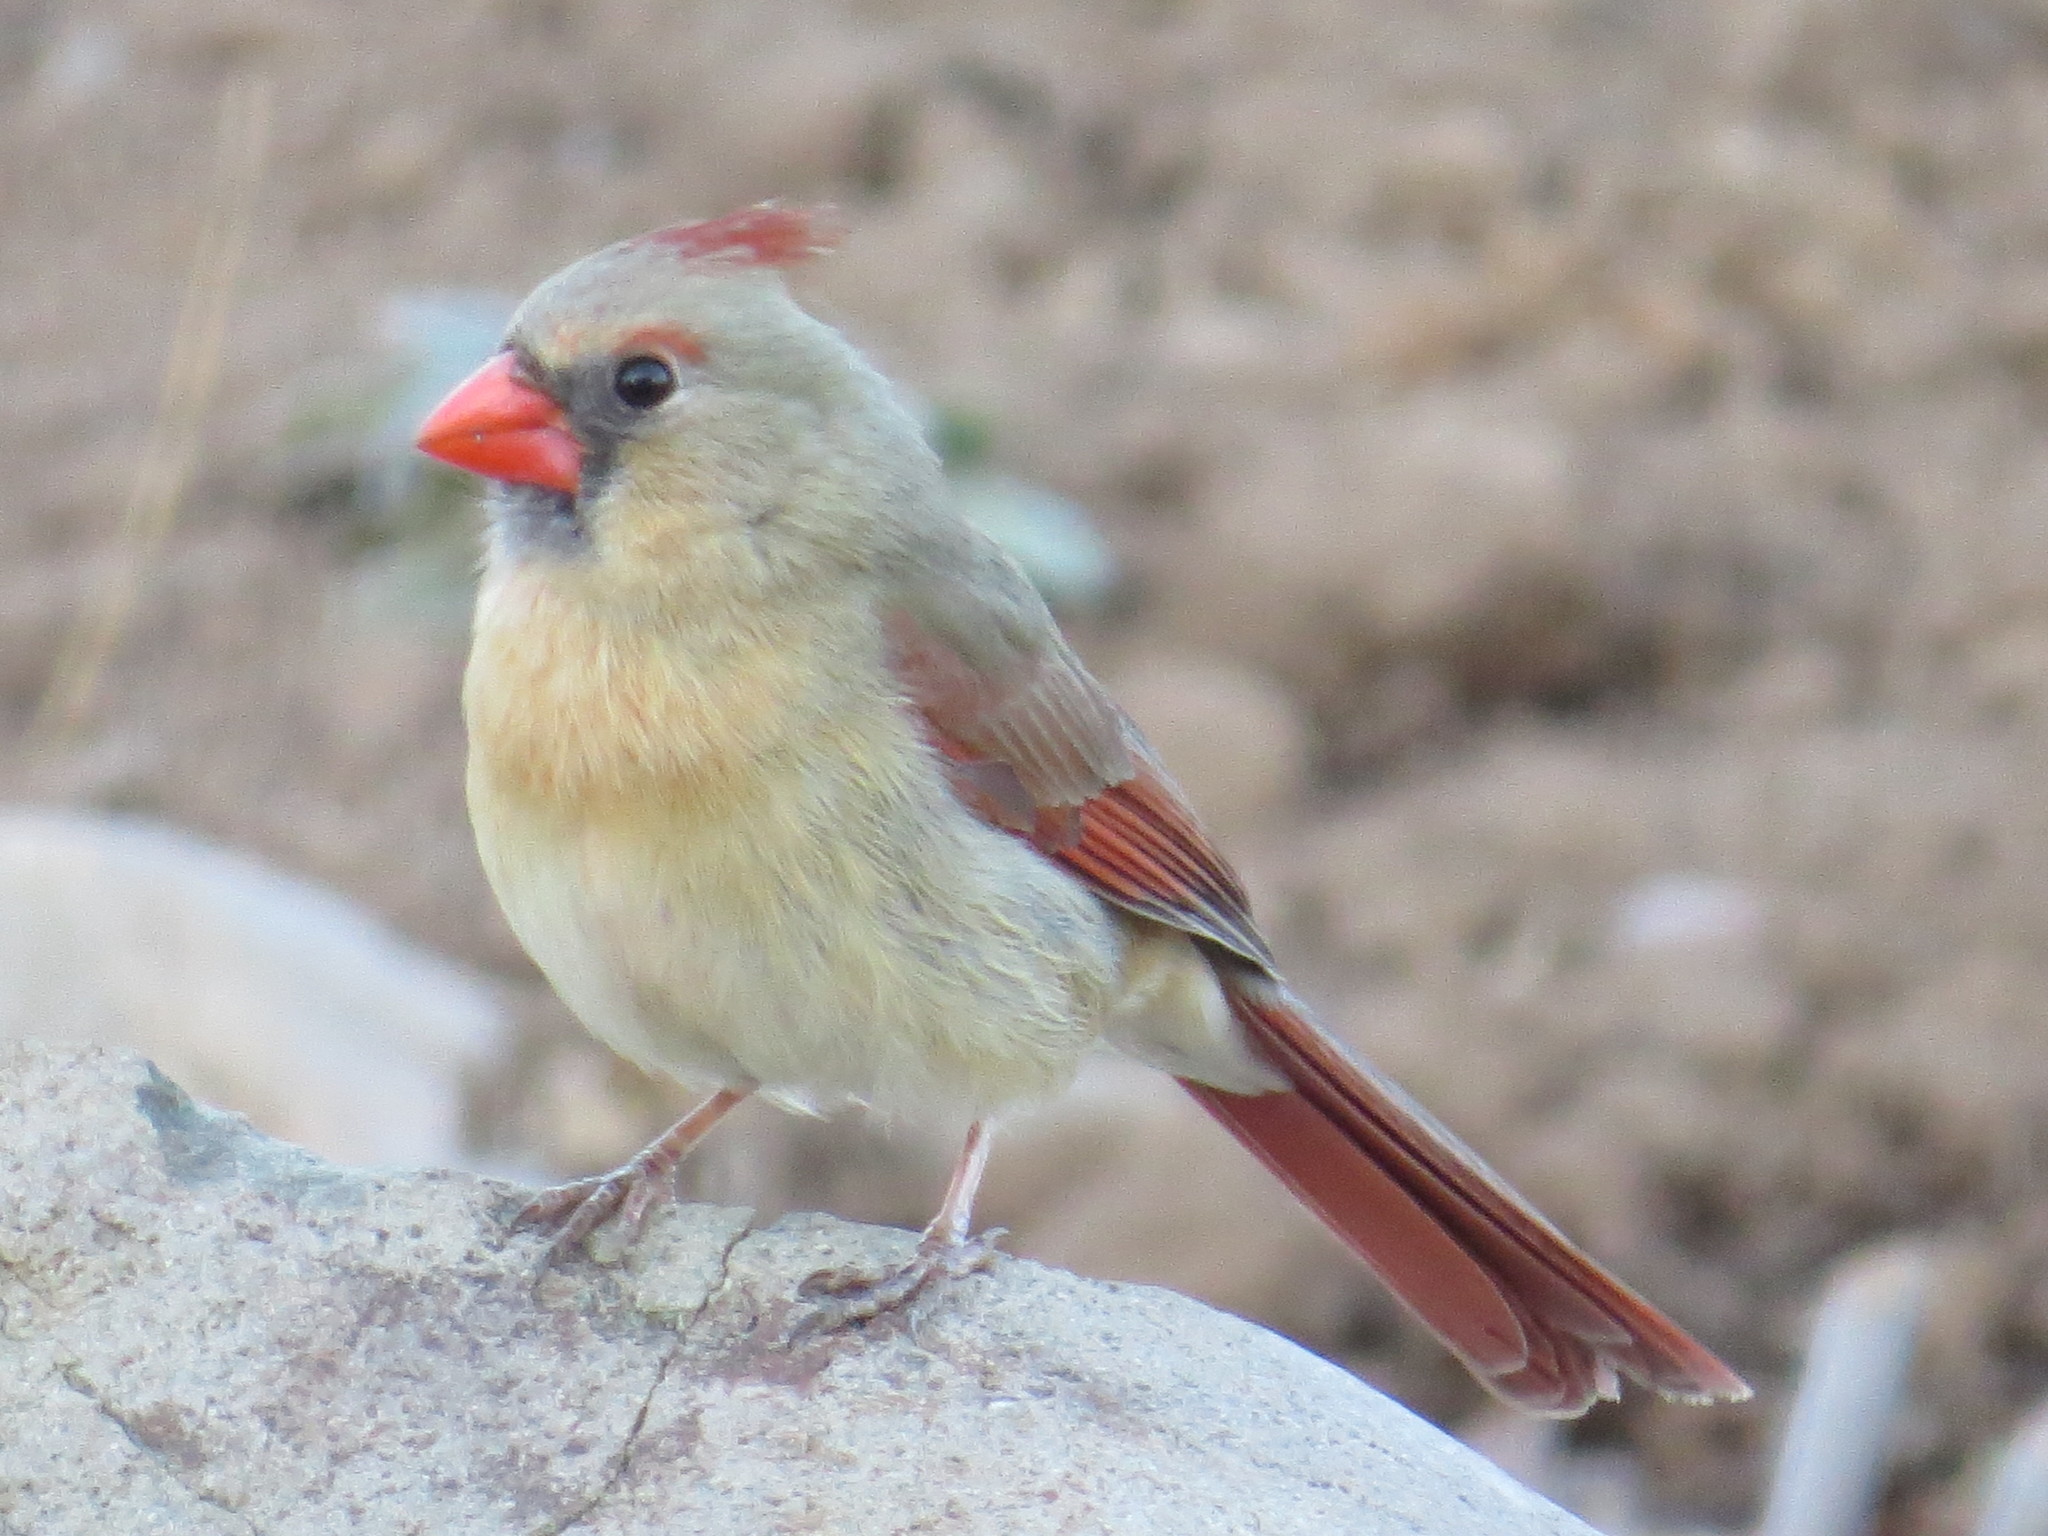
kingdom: Animalia
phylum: Chordata
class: Aves
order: Passeriformes
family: Cardinalidae
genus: Cardinalis
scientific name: Cardinalis cardinalis
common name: Northern cardinal
